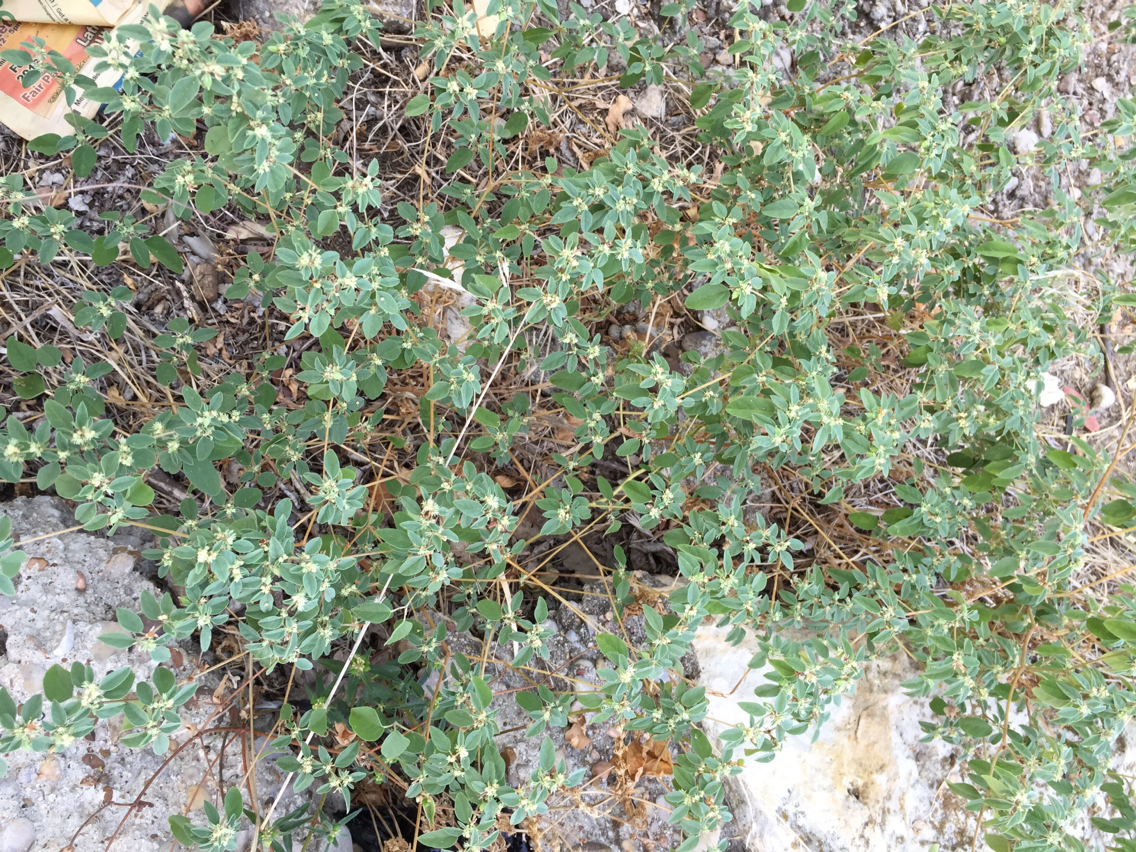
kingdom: Plantae
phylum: Tracheophyta
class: Magnoliopsida
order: Malpighiales
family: Euphorbiaceae
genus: Croton
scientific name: Croton monanthogynus
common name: One-seed croton
